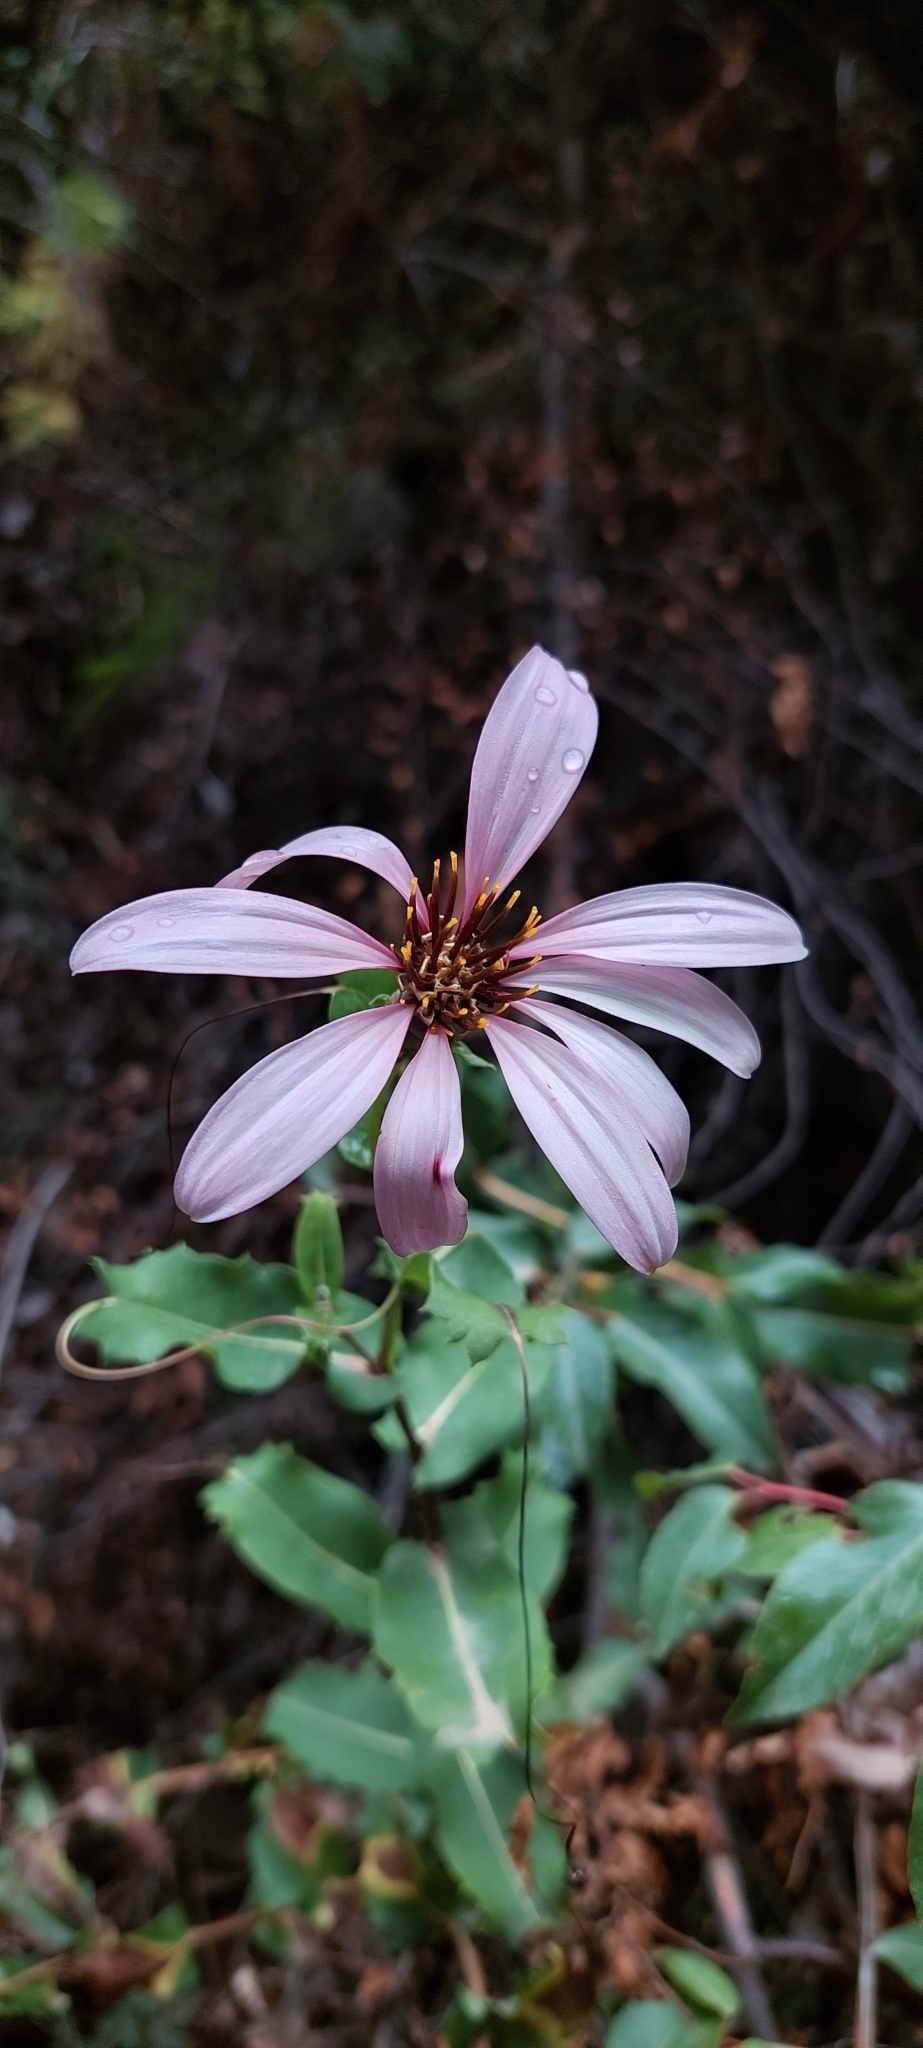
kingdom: Plantae
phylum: Tracheophyta
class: Magnoliopsida
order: Asterales
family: Asteraceae
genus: Mutisia
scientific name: Mutisia spinosa
